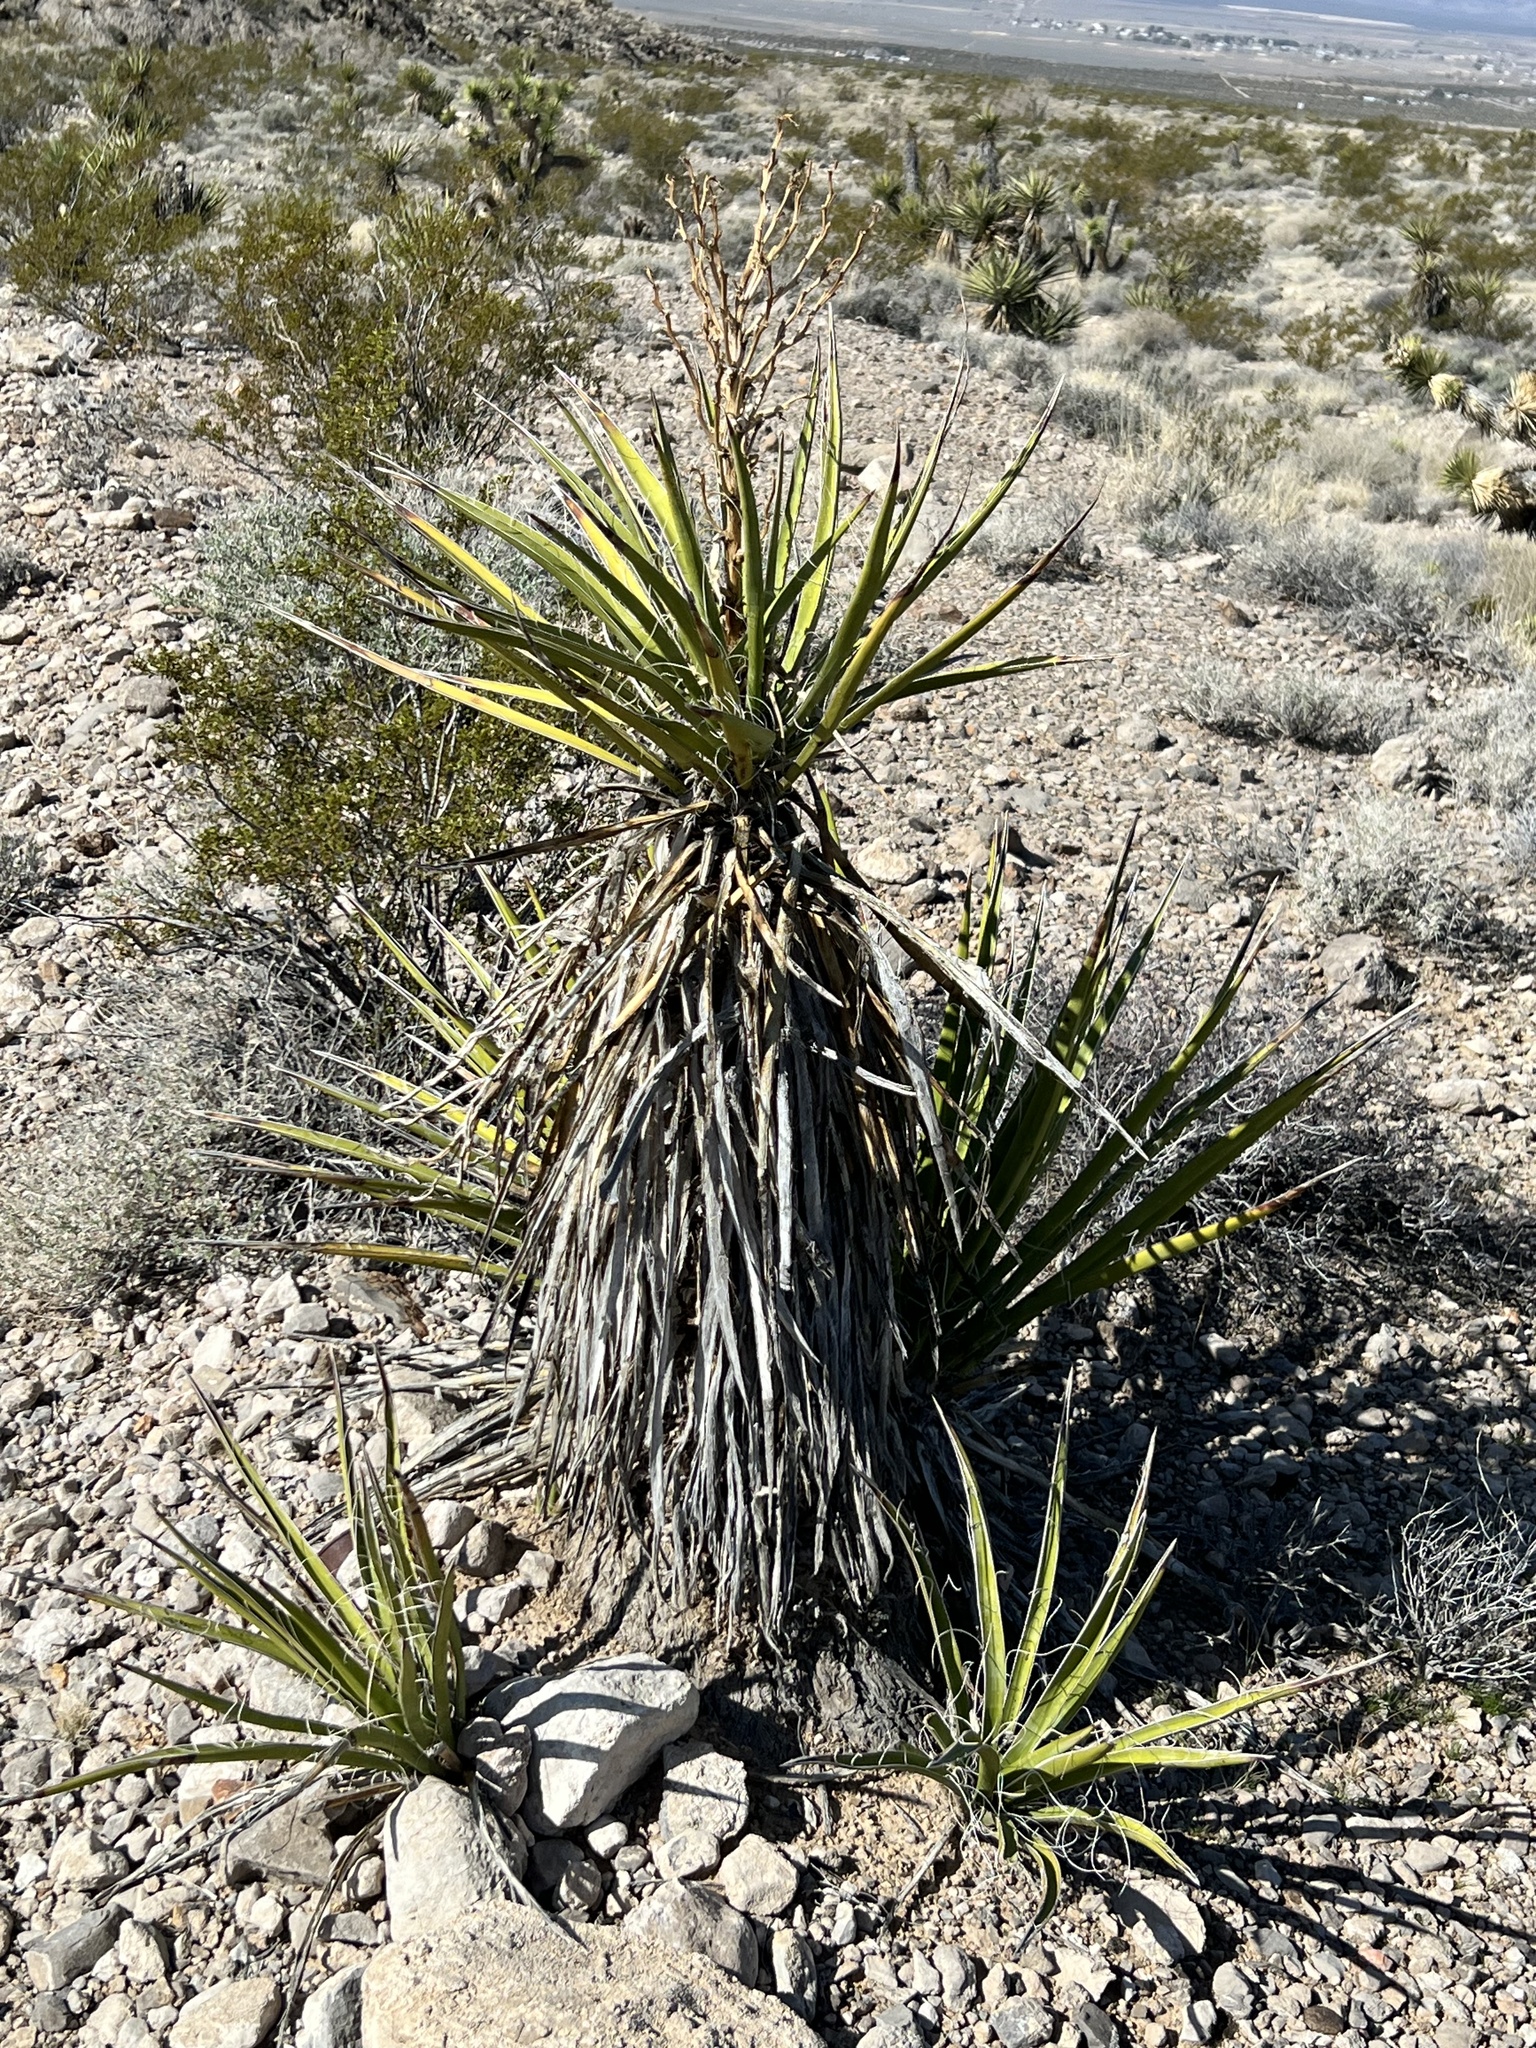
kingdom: Plantae
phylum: Tracheophyta
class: Liliopsida
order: Asparagales
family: Asparagaceae
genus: Yucca
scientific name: Yucca schidigera
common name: Mojave yucca
